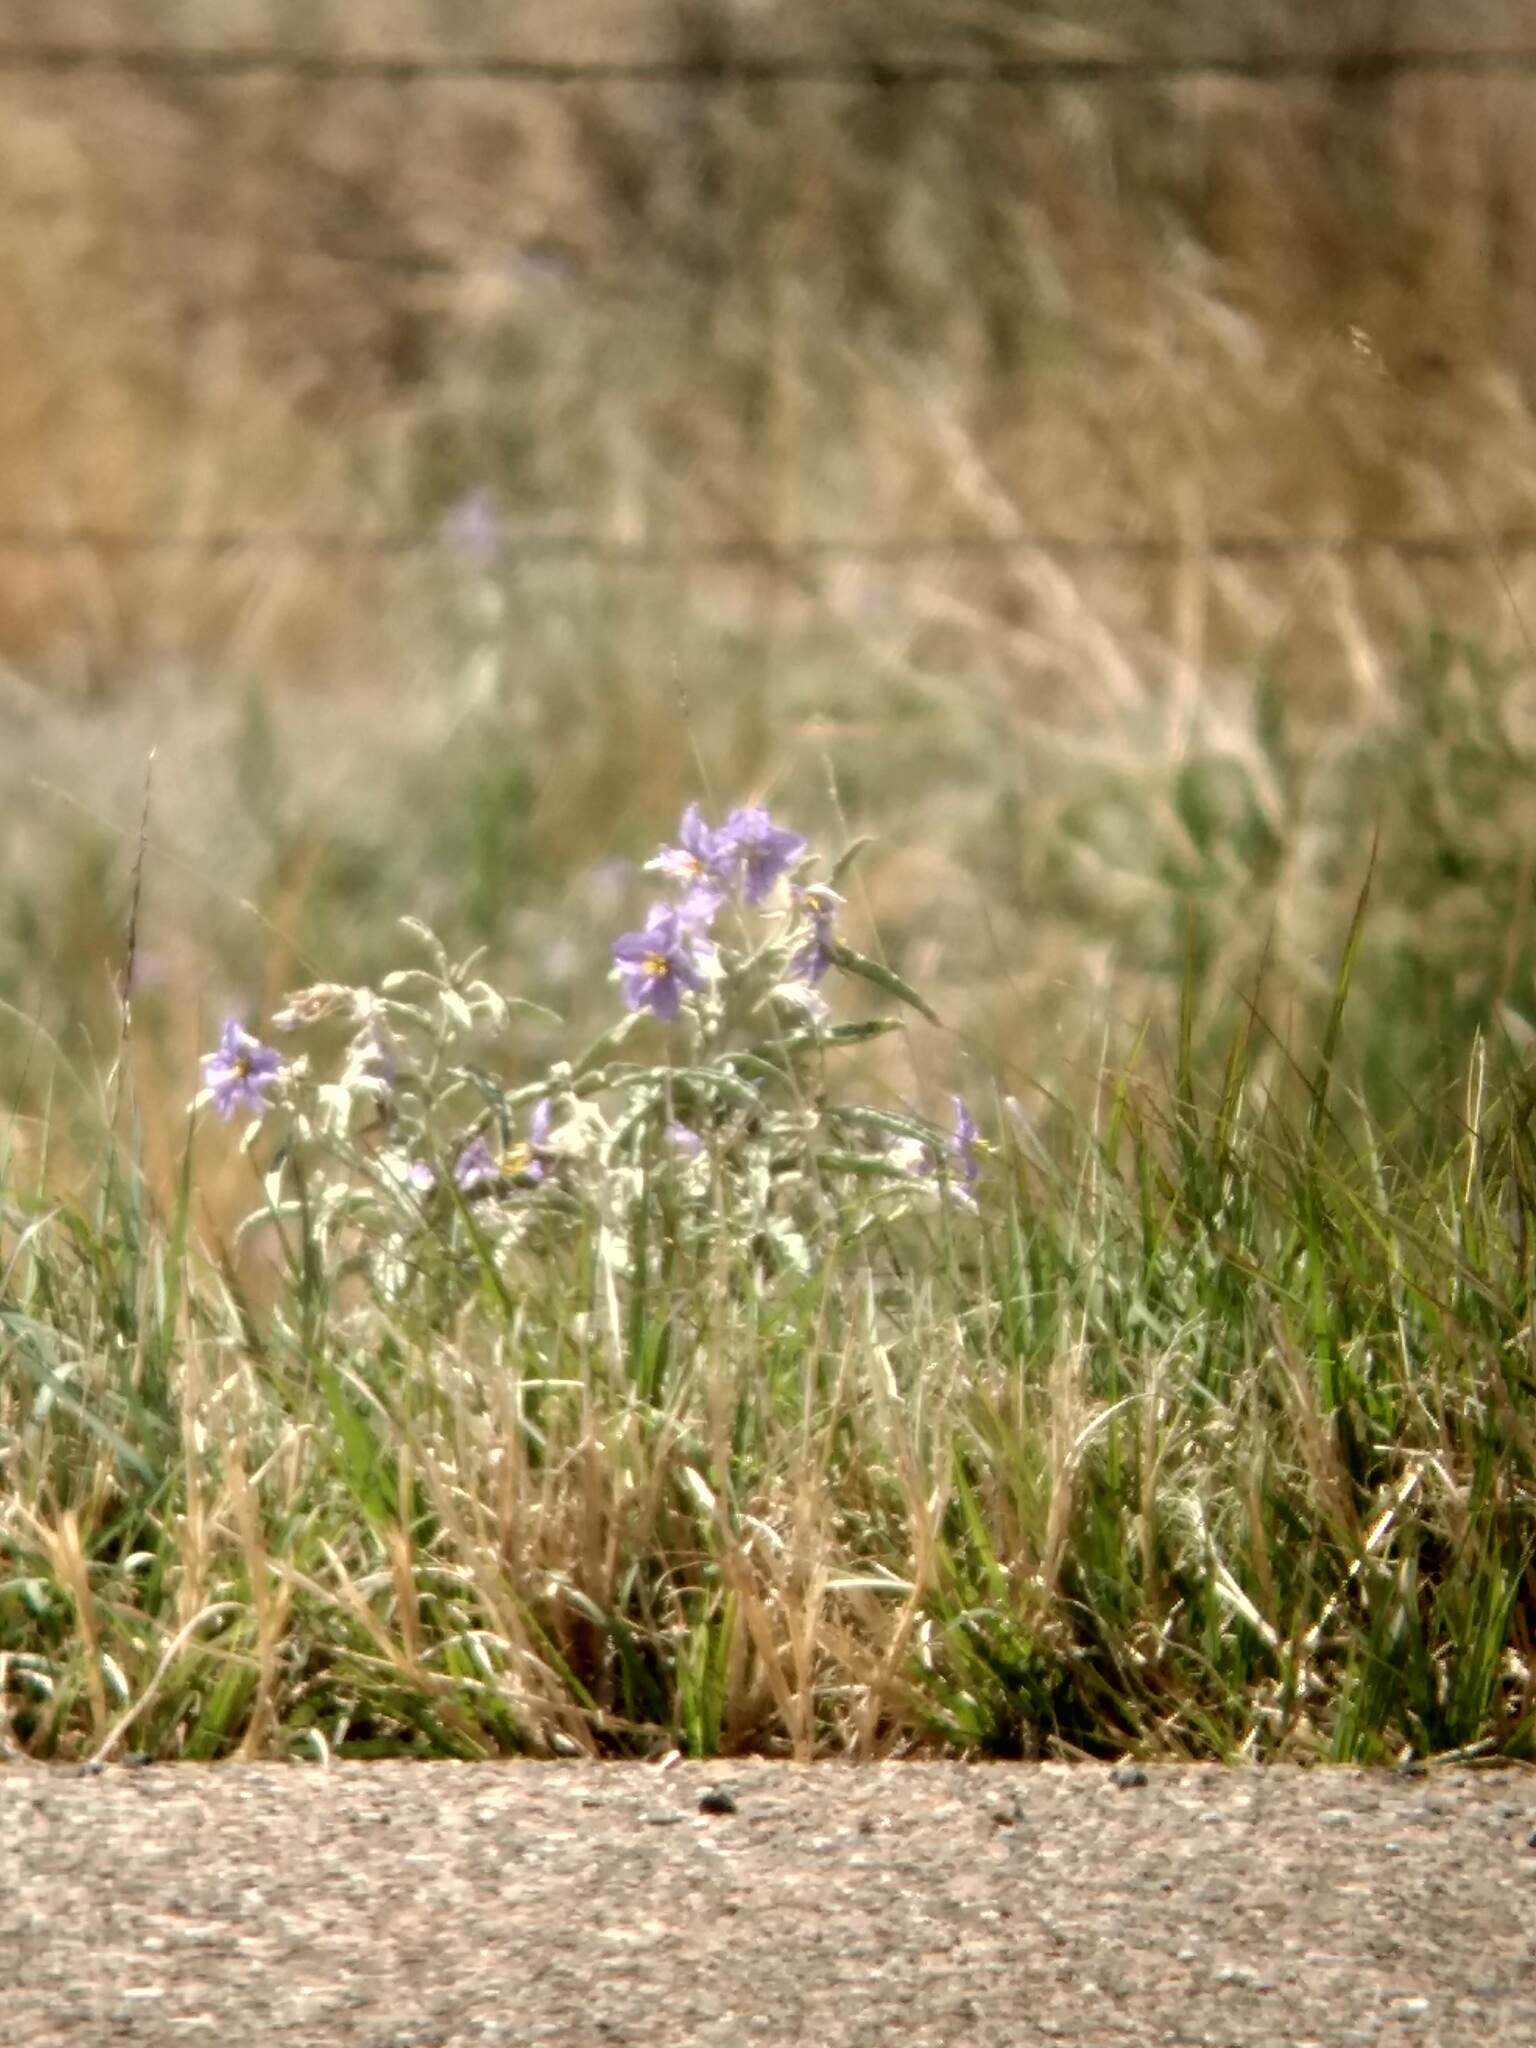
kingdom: Plantae
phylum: Tracheophyta
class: Magnoliopsida
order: Solanales
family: Solanaceae
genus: Solanum
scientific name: Solanum elaeagnifolium
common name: Silverleaf nightshade
